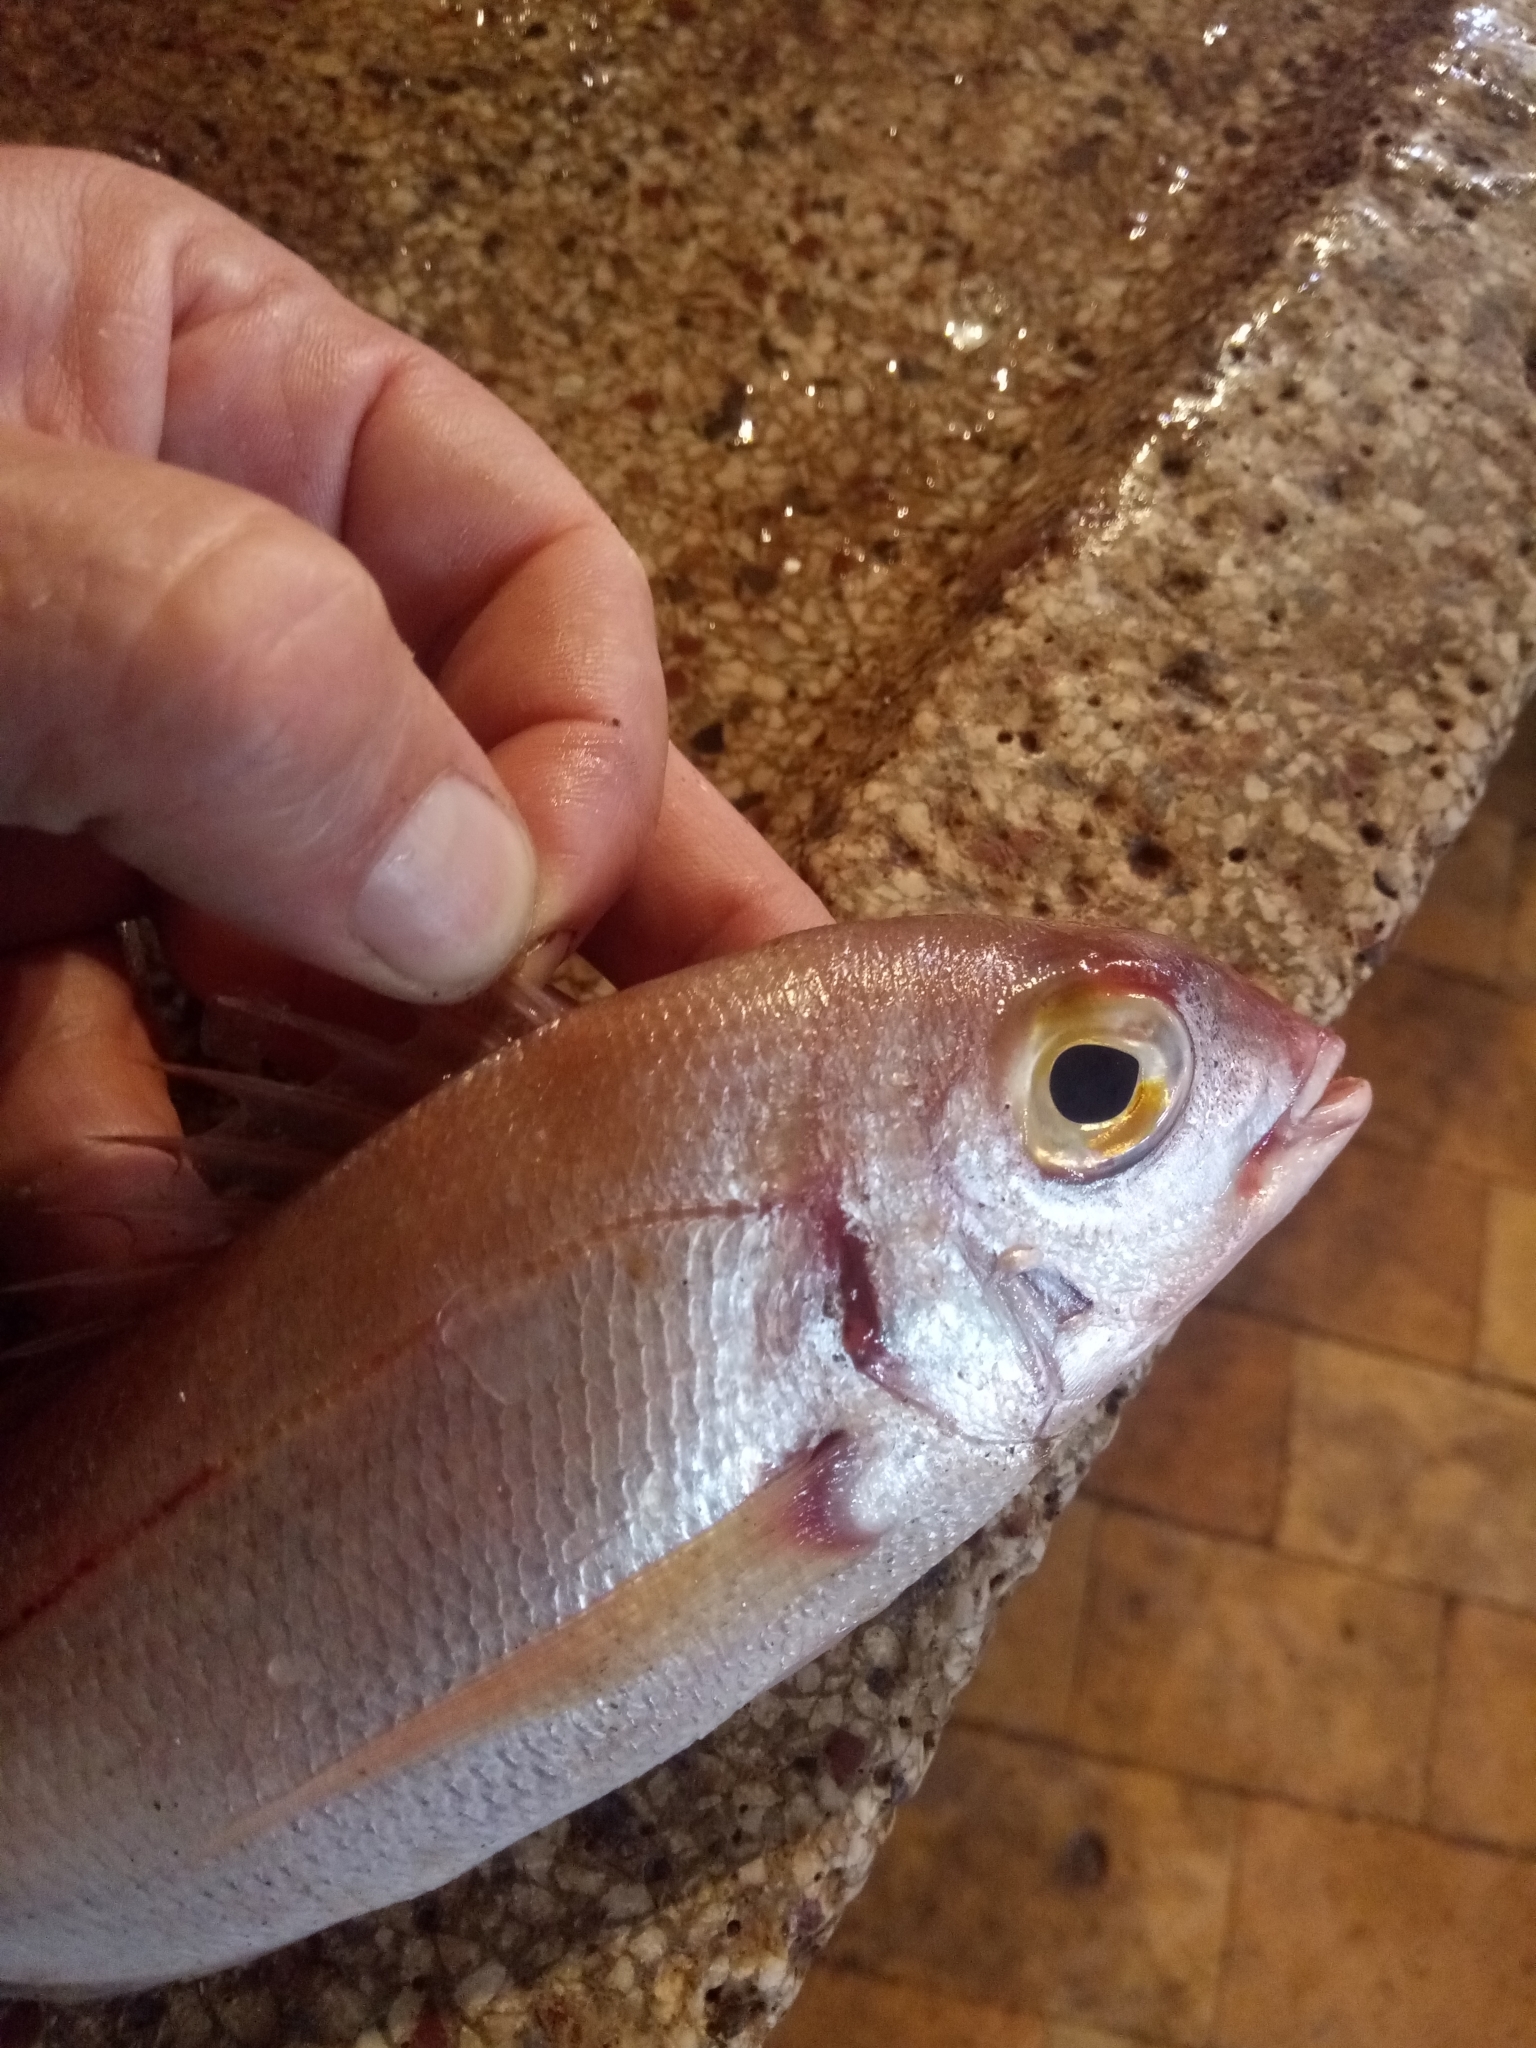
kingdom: Animalia
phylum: Chordata
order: Perciformes
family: Sparidae
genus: Pagellus
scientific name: Pagellus bellottii
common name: Red pandora
